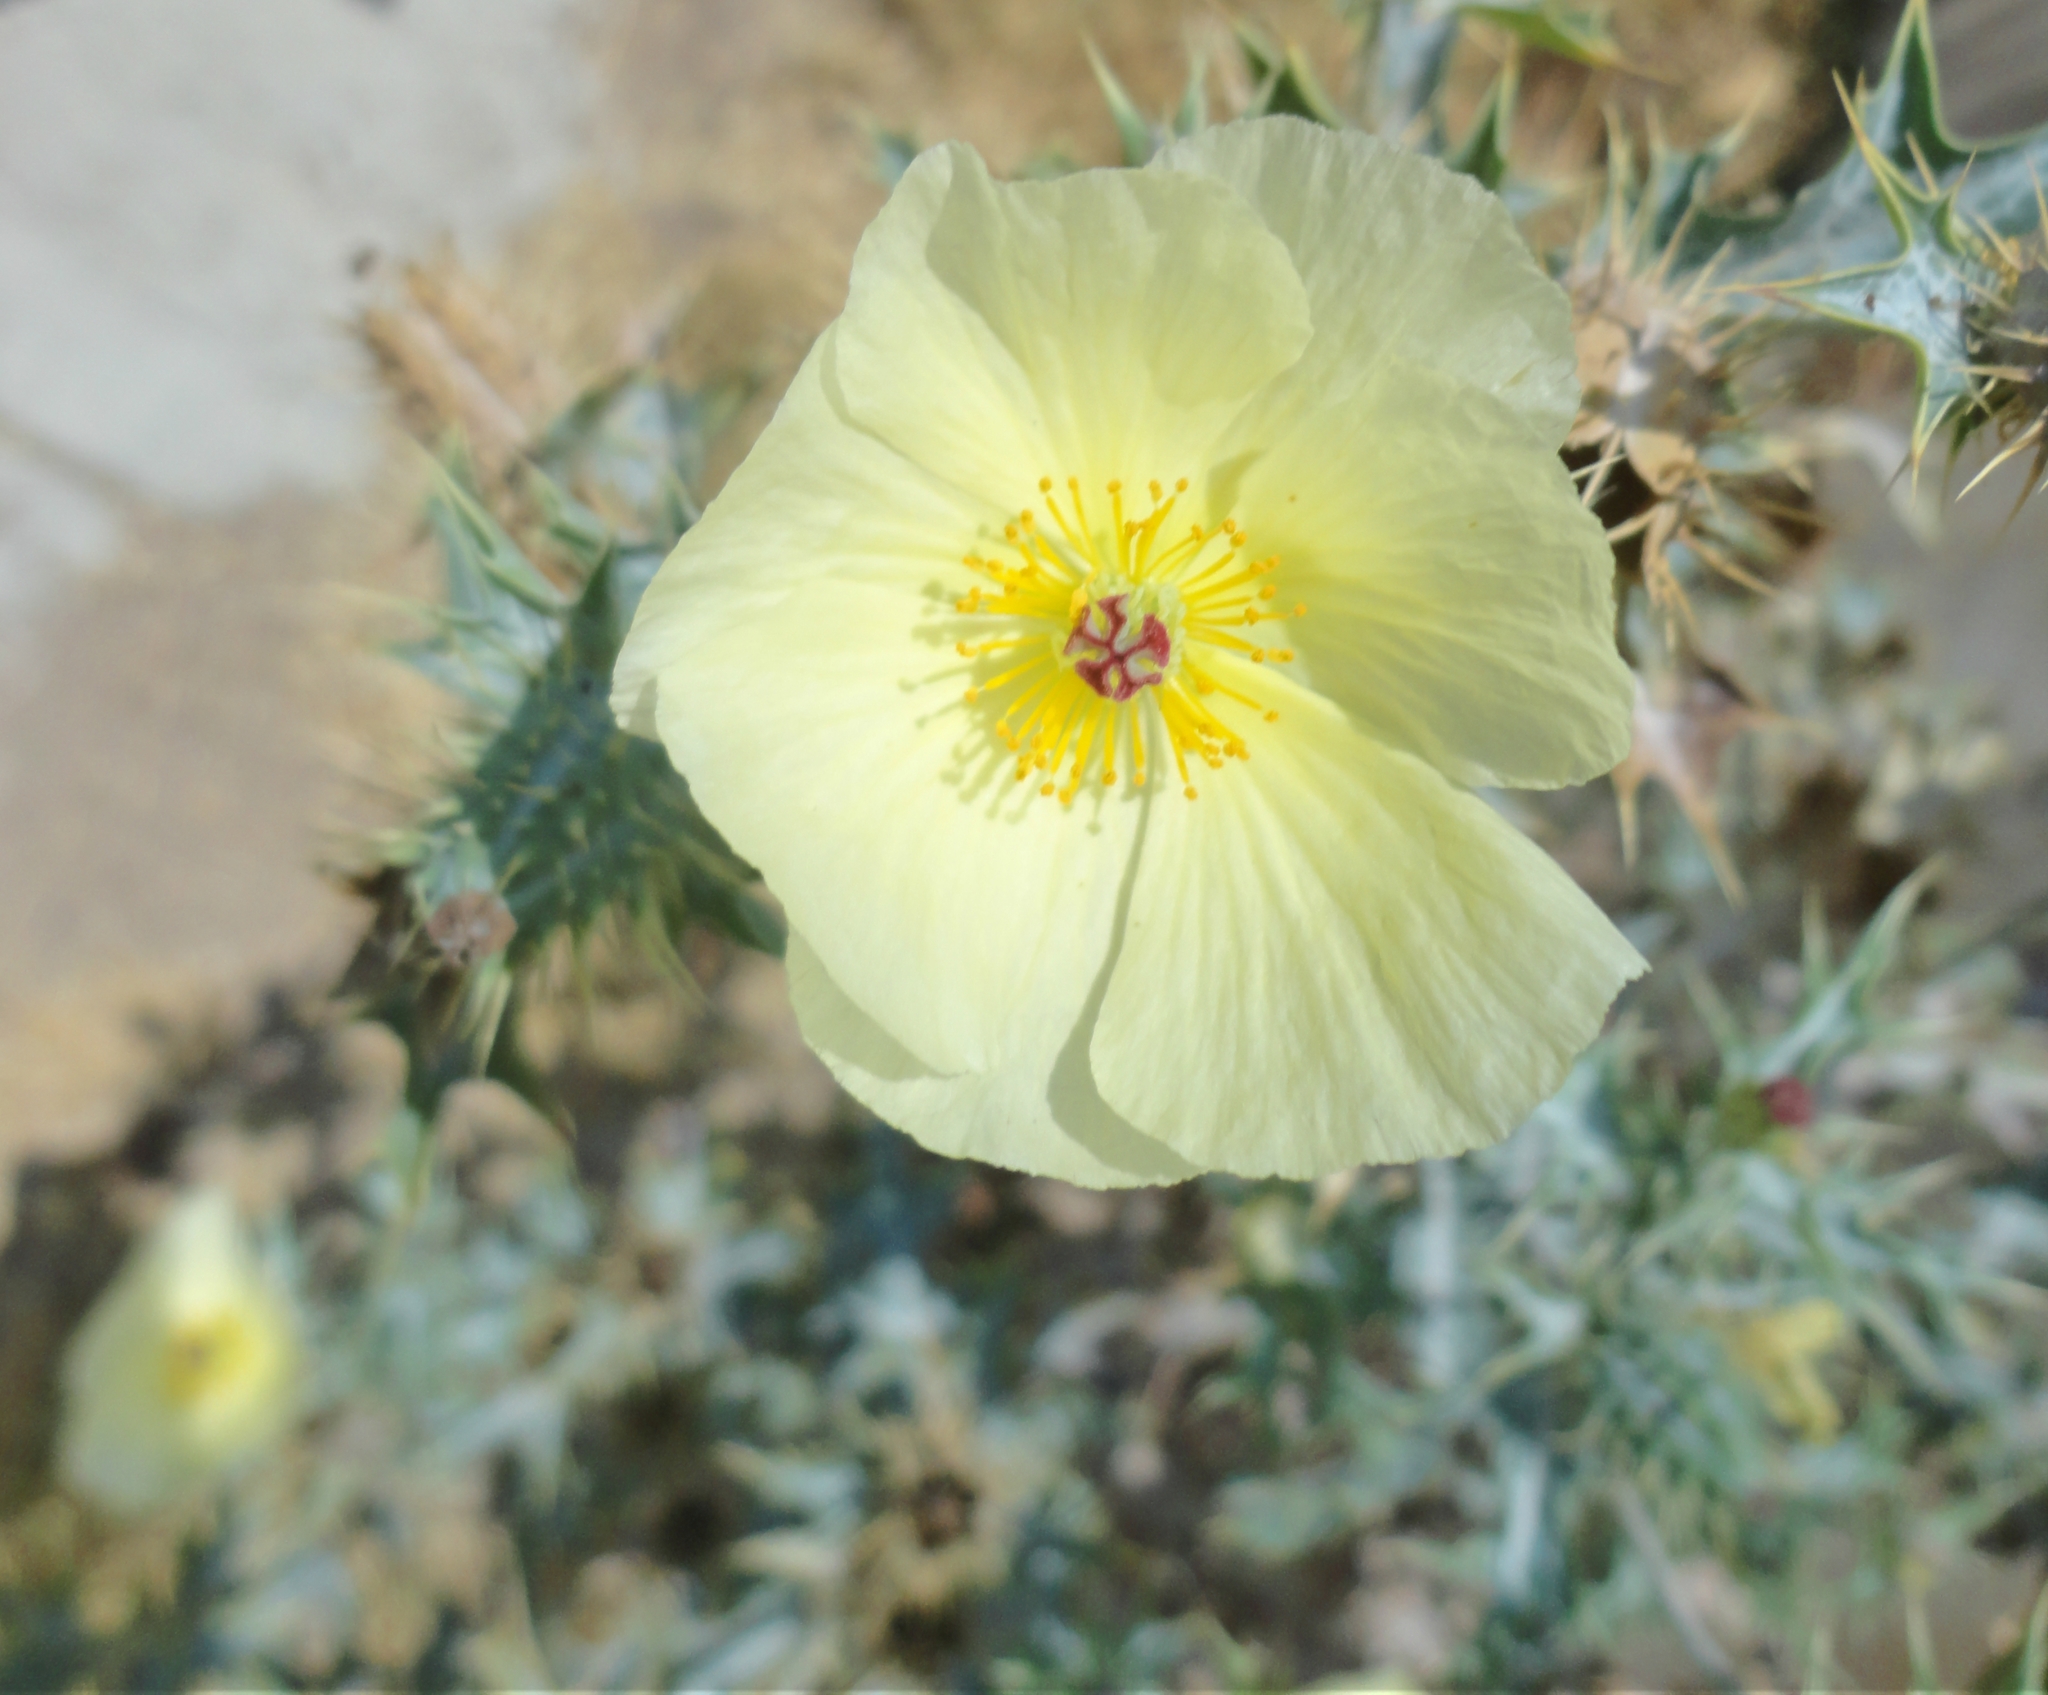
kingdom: Plantae
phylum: Tracheophyta
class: Magnoliopsida
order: Ranunculales
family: Papaveraceae
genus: Argemone
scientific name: Argemone ochroleuca
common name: White-flower mexican-poppy
